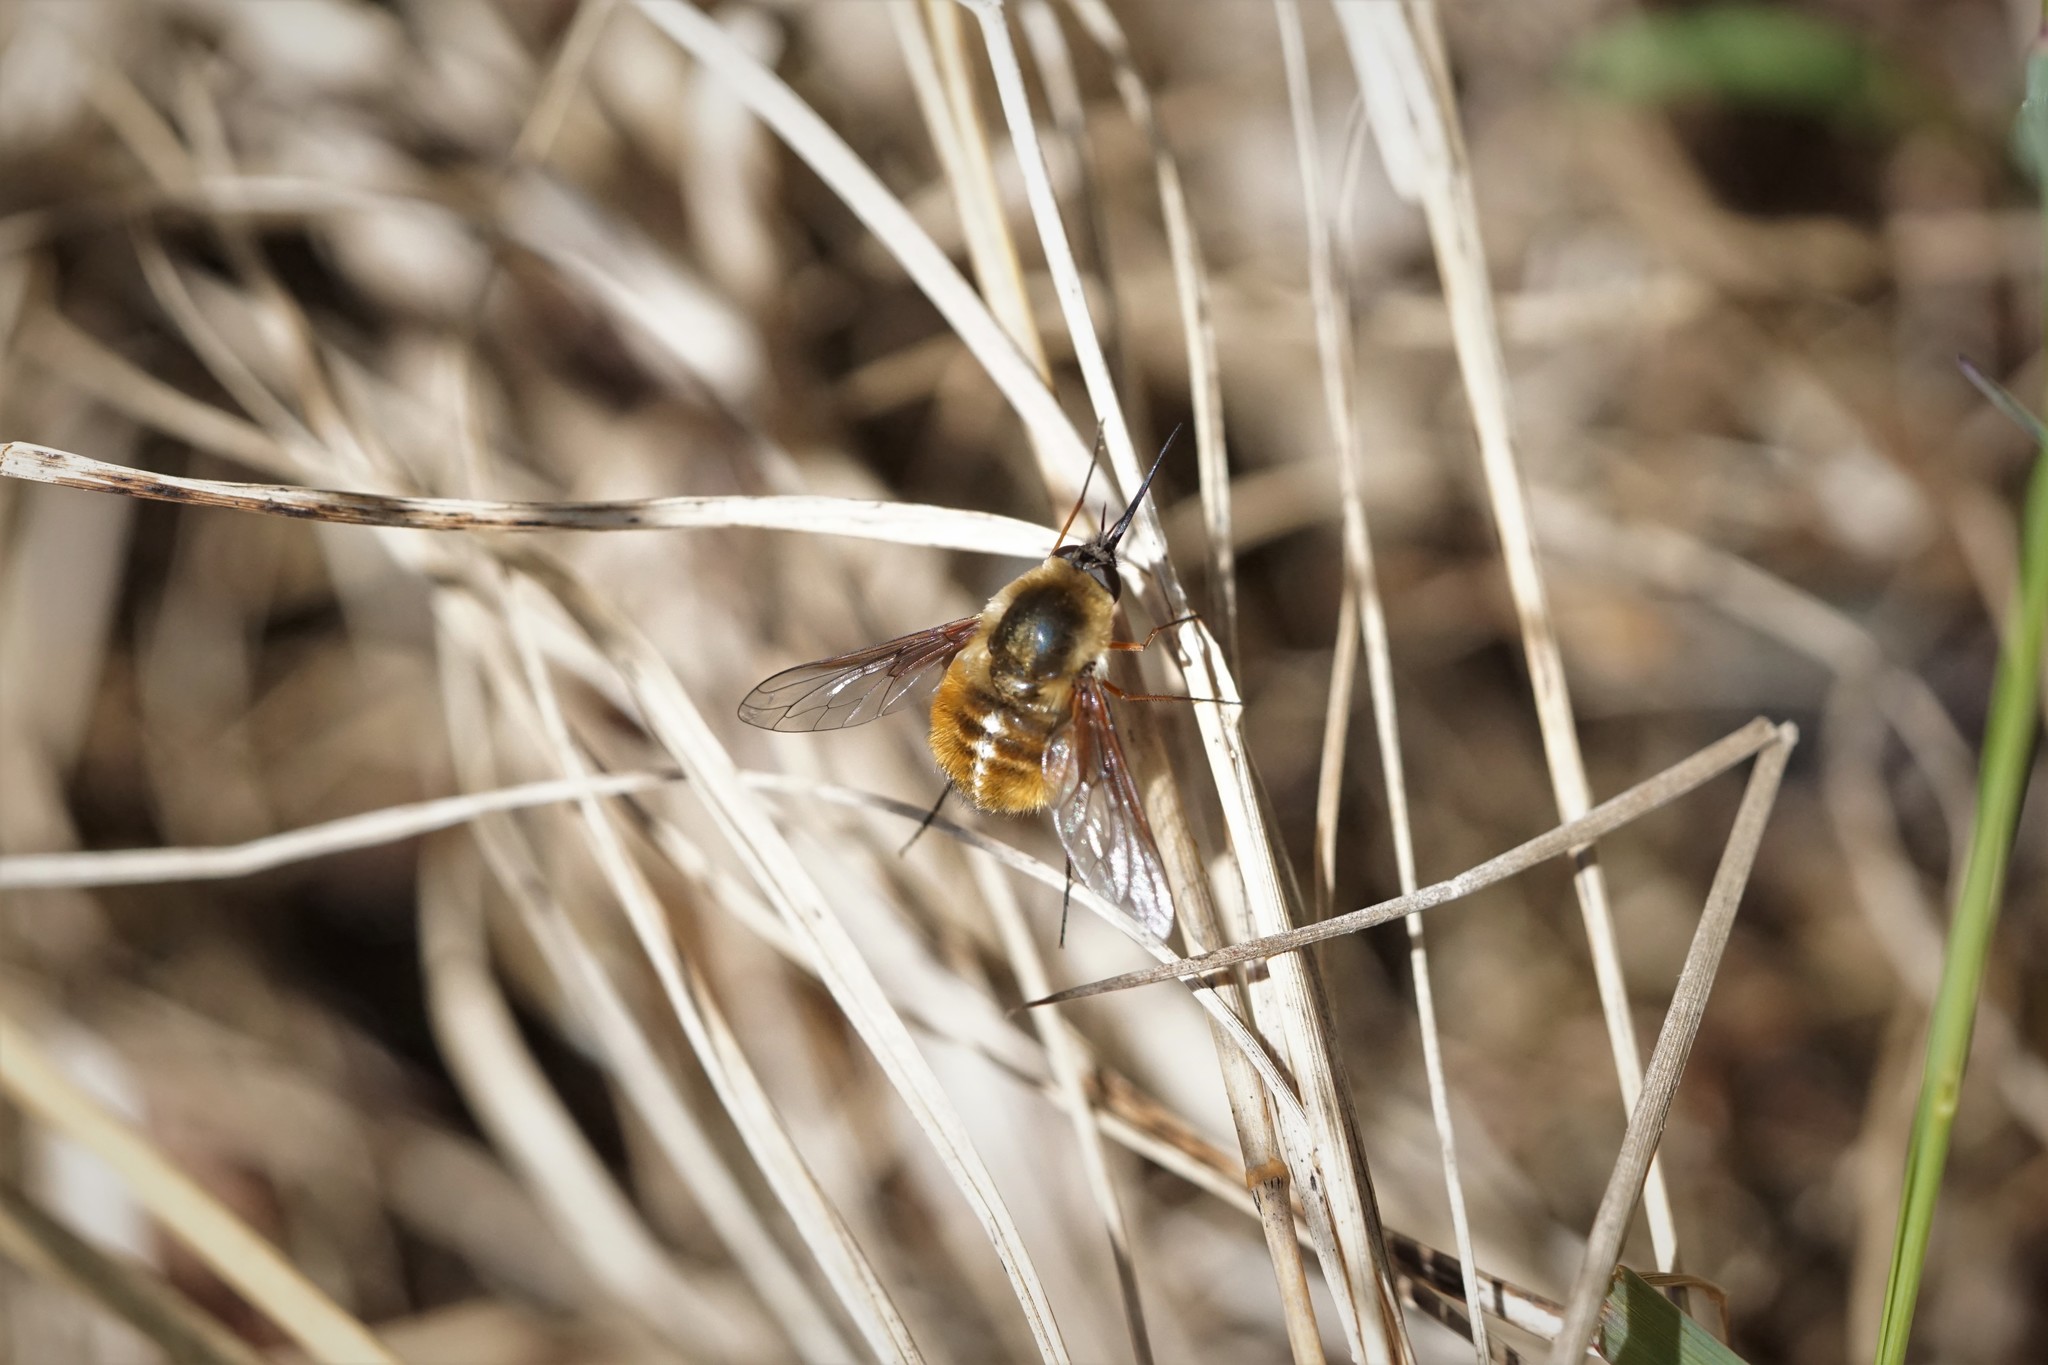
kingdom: Animalia
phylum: Arthropoda
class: Insecta
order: Diptera
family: Bombyliidae
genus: Bombylius
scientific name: Bombylius mexicanus
